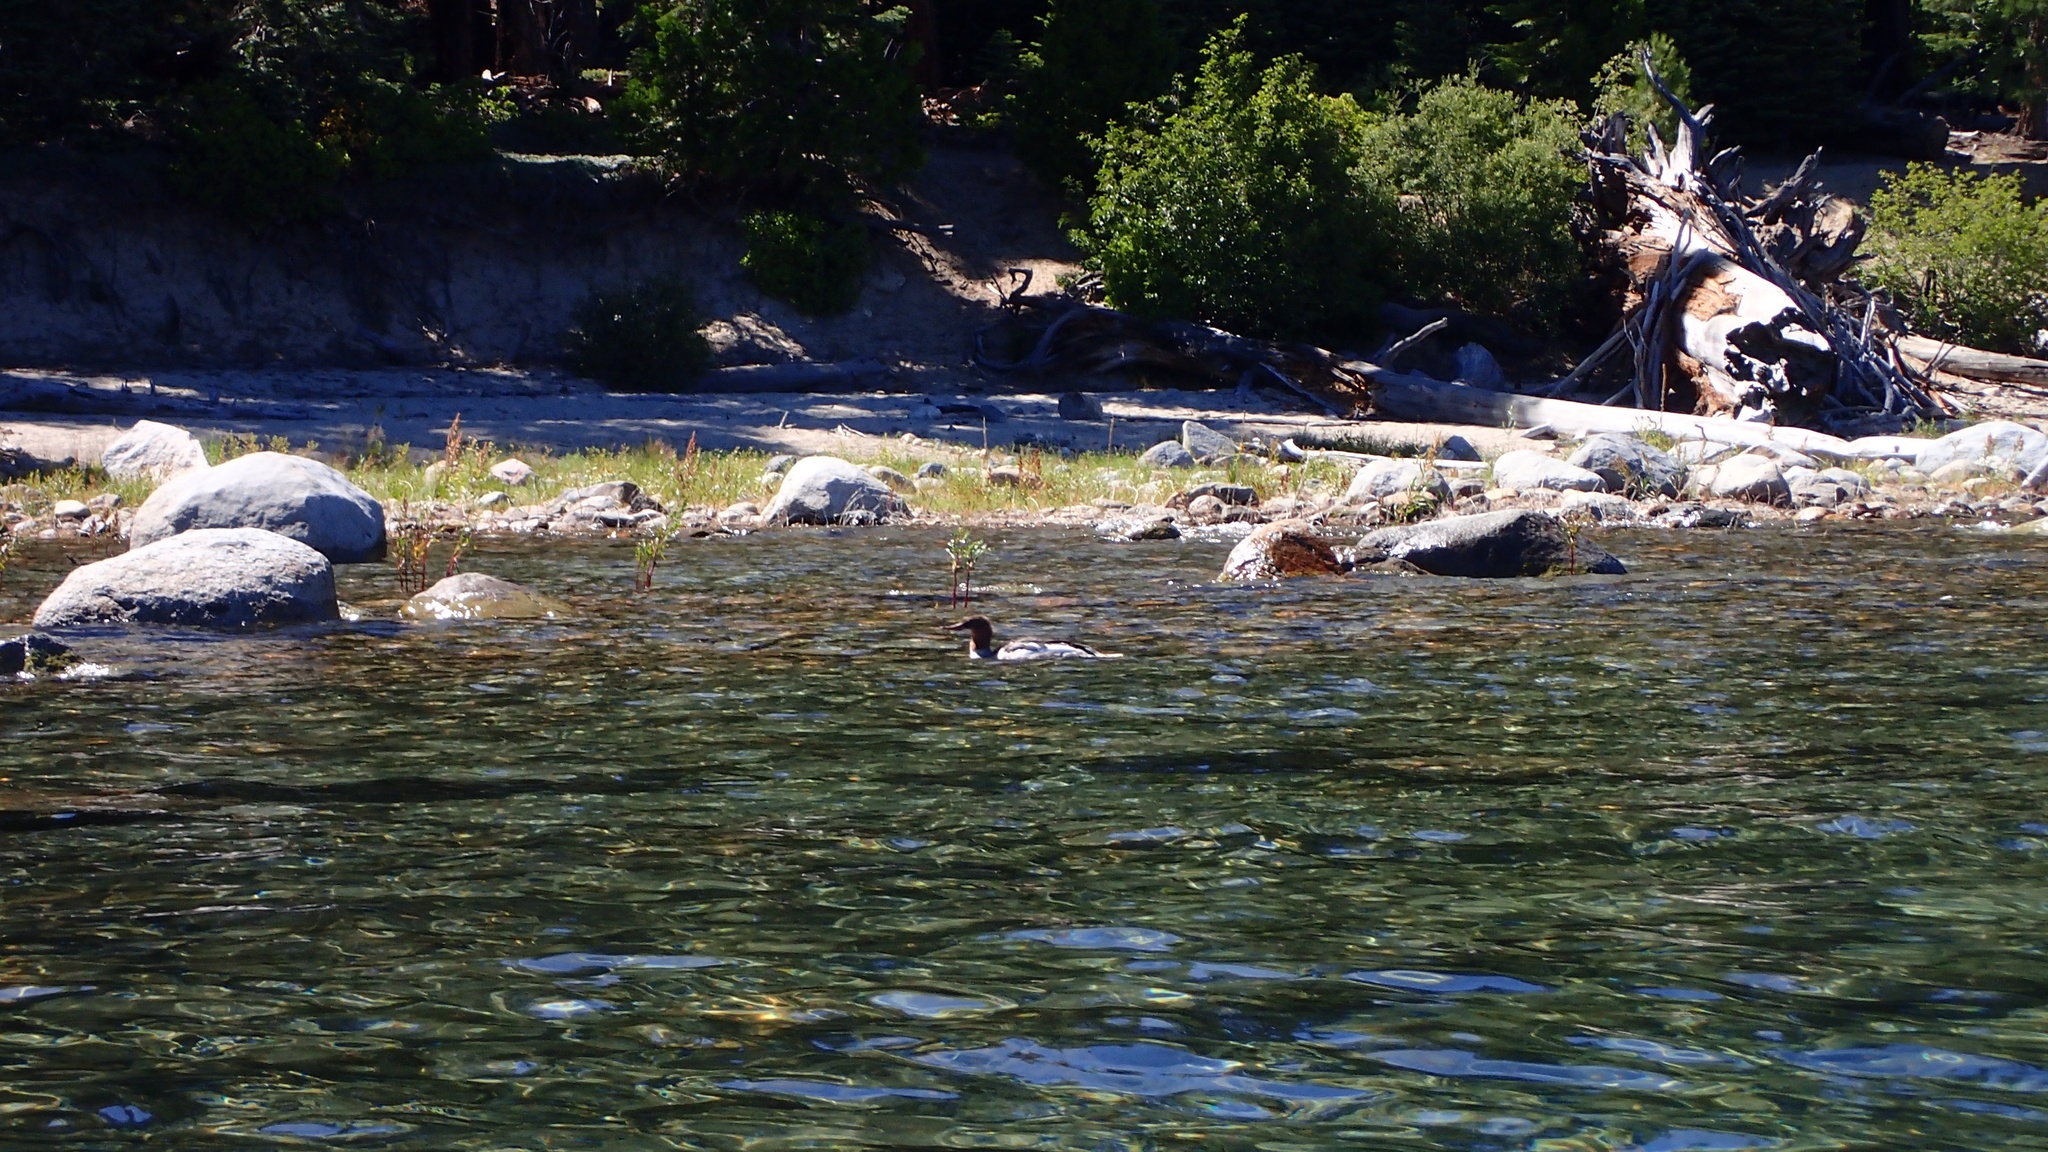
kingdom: Animalia
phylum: Chordata
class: Aves
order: Anseriformes
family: Anatidae
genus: Mergus
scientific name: Mergus merganser
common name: Common merganser
